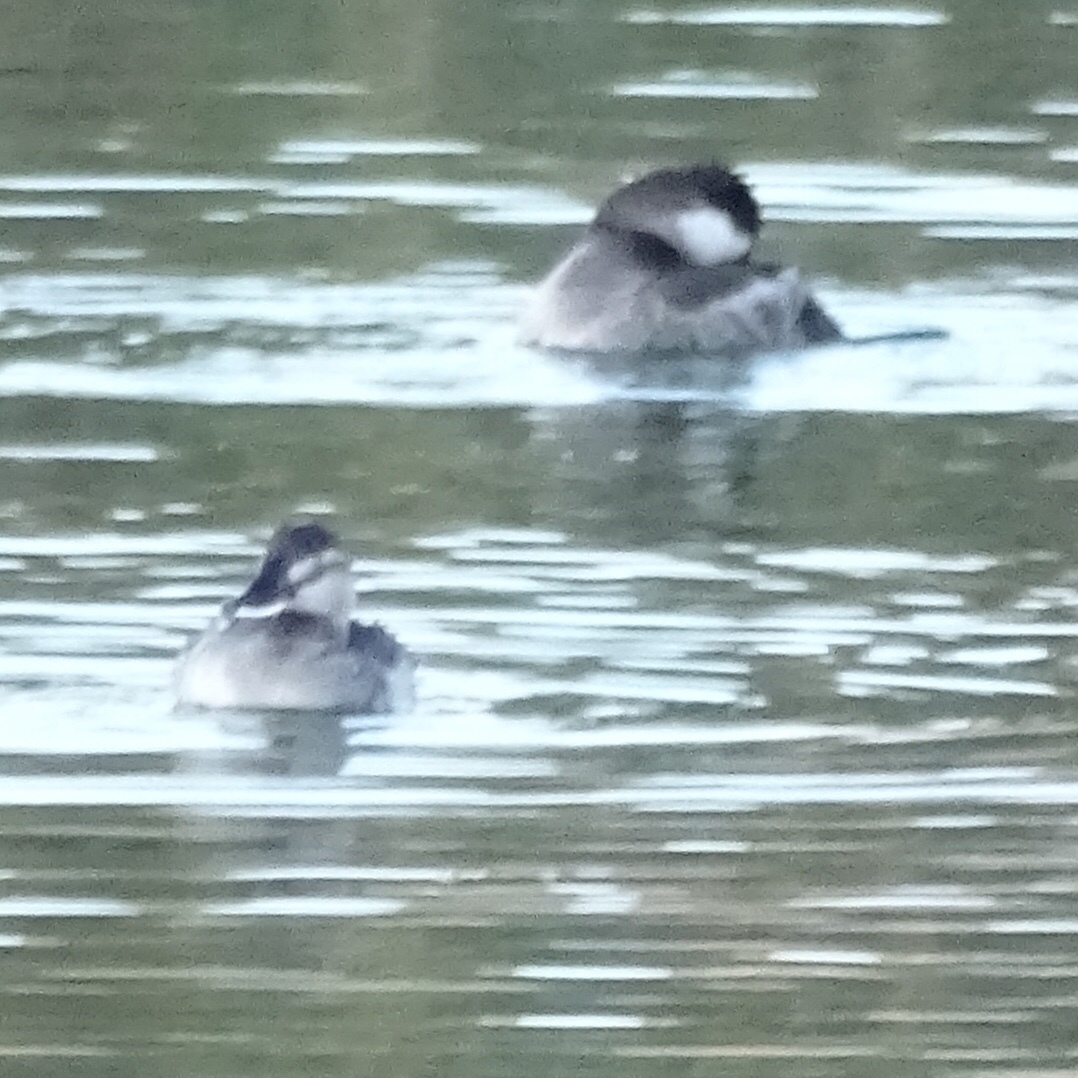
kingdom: Animalia
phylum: Chordata
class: Aves
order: Anseriformes
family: Anatidae
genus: Oxyura
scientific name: Oxyura jamaicensis
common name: Ruddy duck
